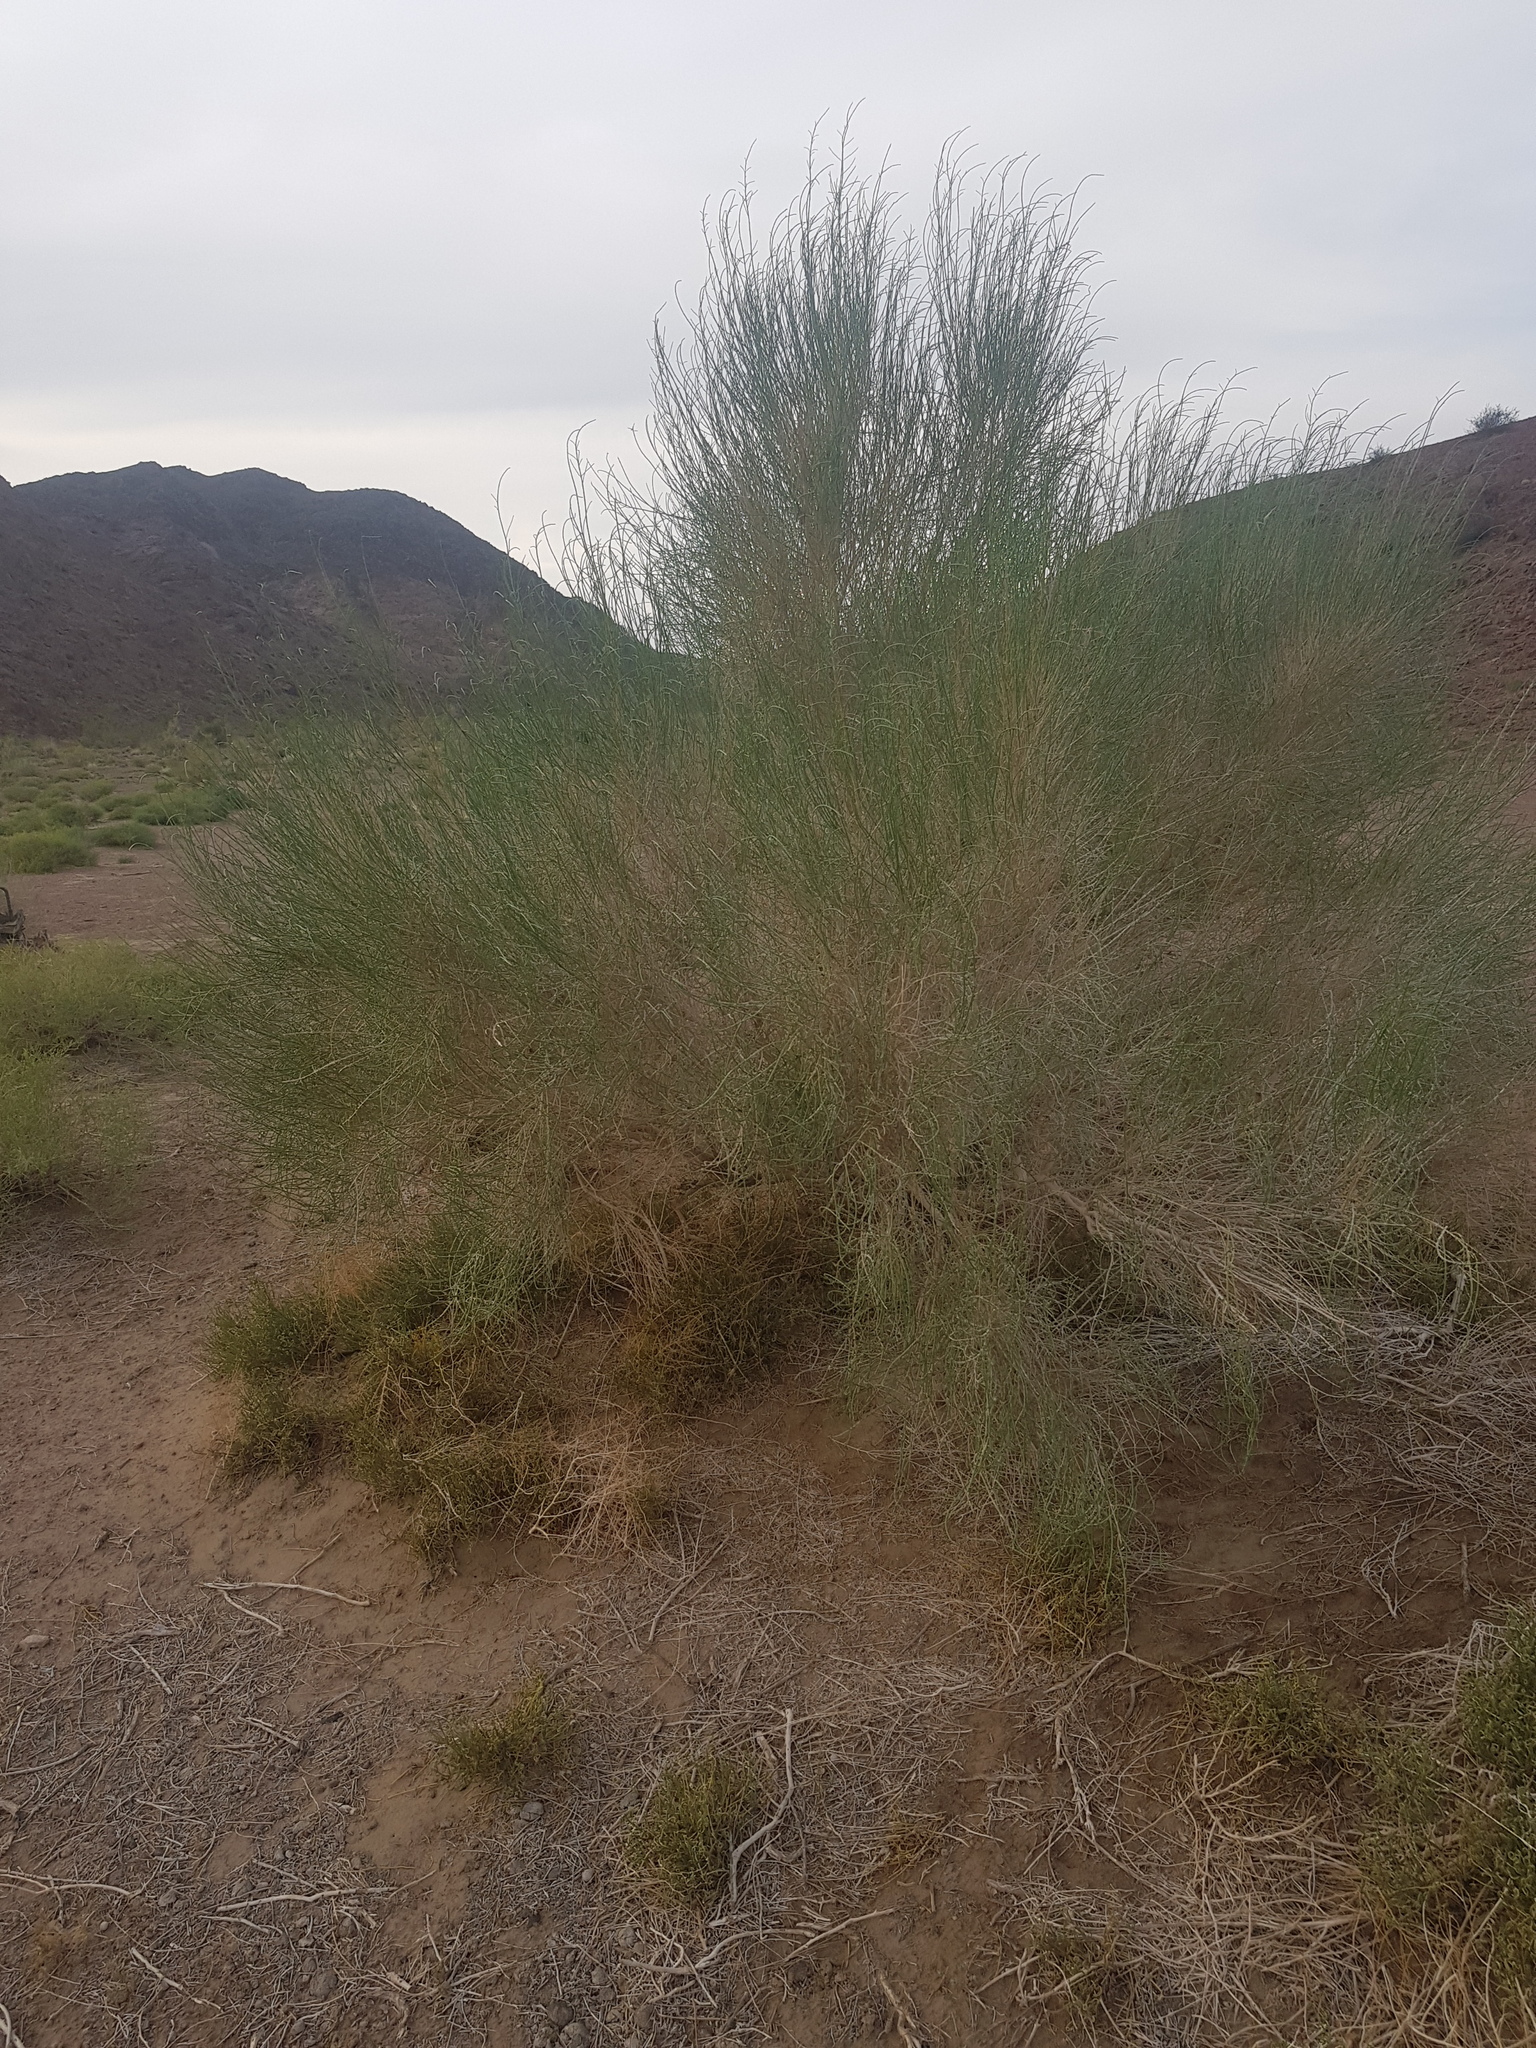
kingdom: Plantae
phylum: Tracheophyta
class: Magnoliopsida
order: Caryophyllales
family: Amaranthaceae
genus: Haloxylon
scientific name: Haloxylon ammodendron
